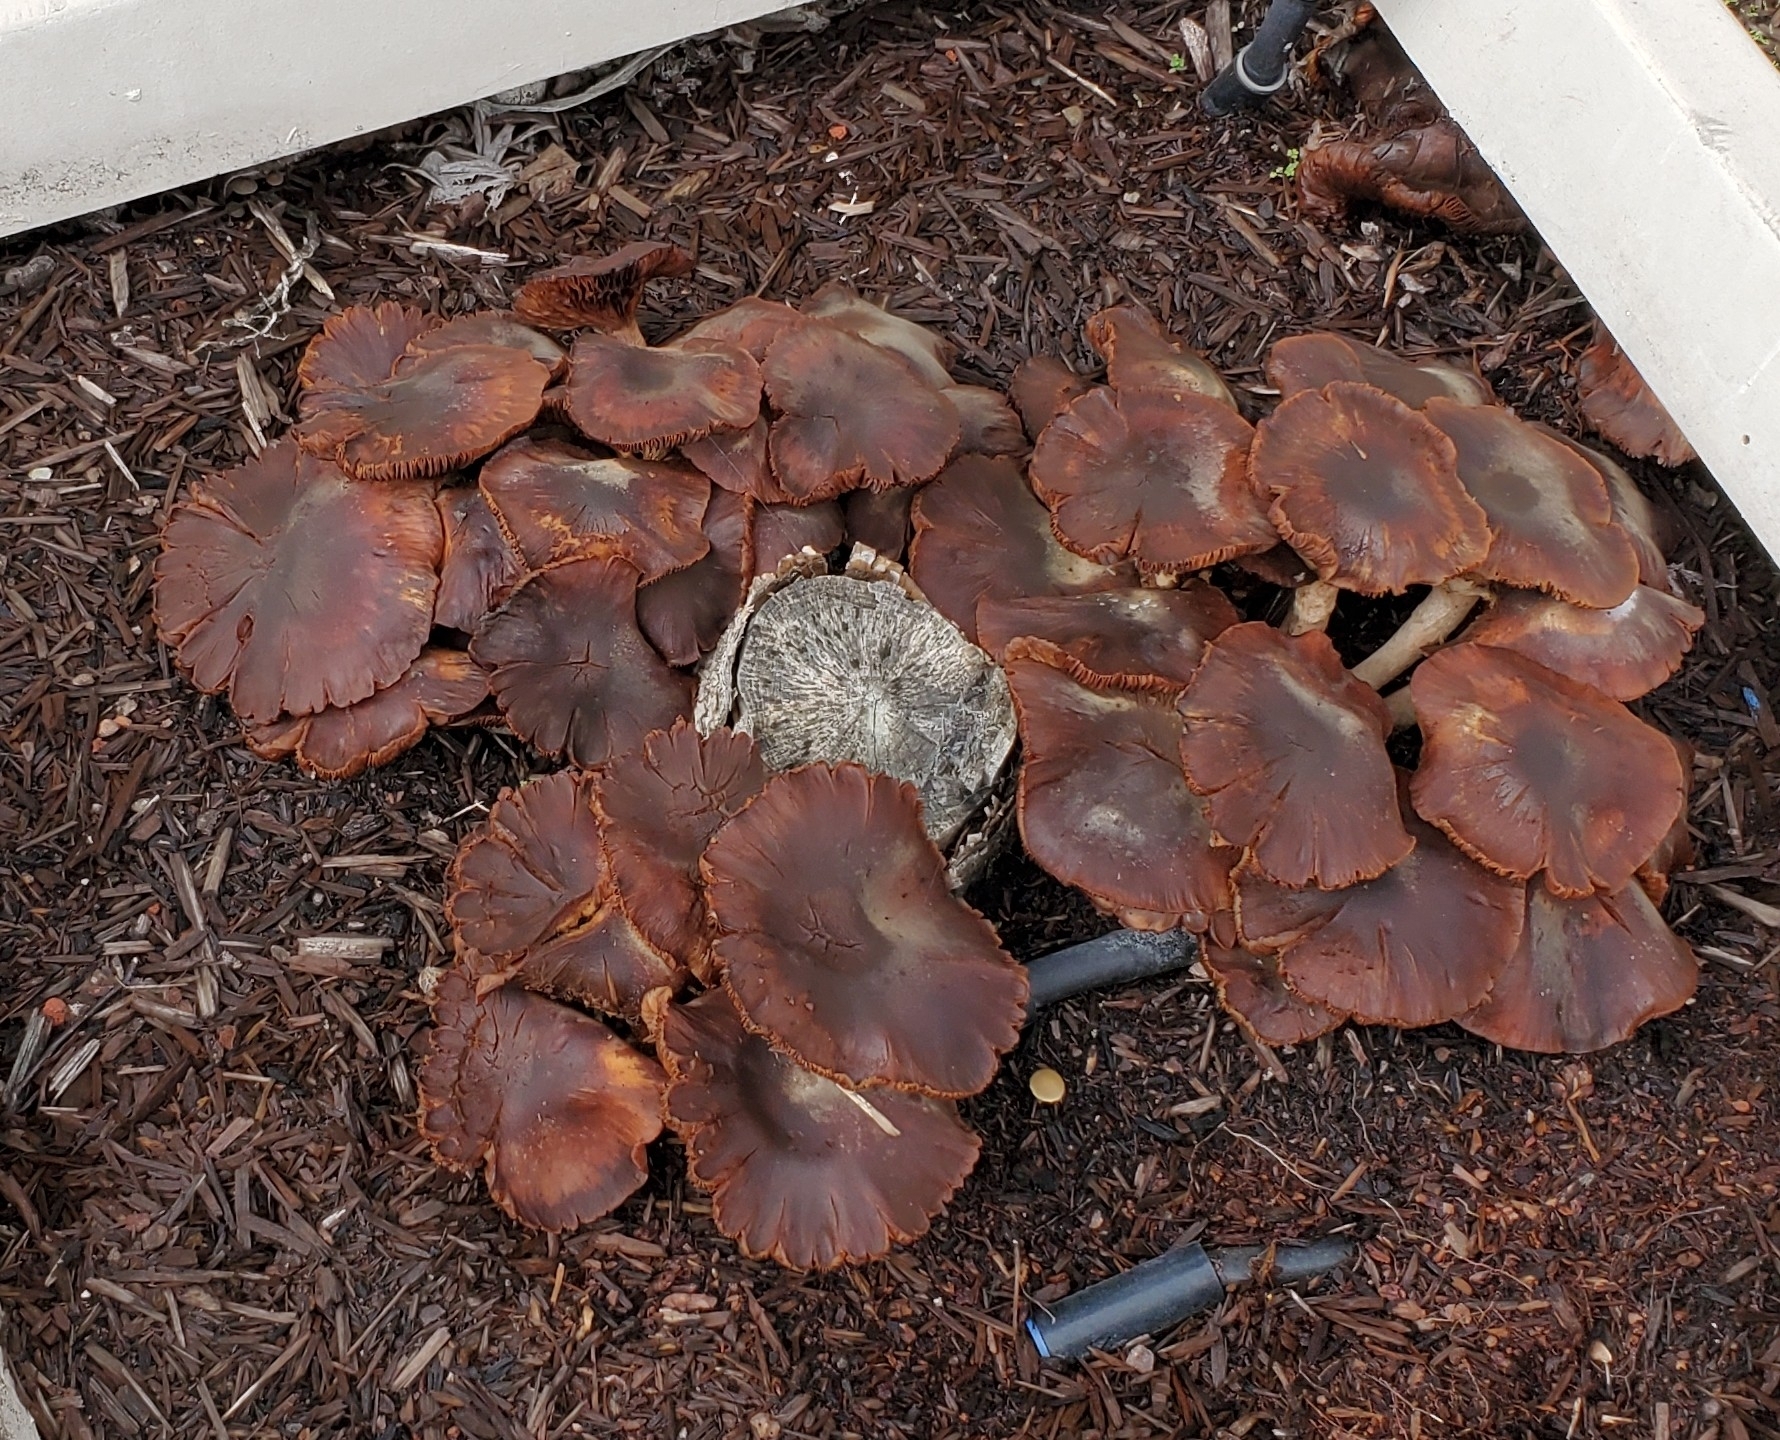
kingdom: Fungi
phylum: Basidiomycota
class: Agaricomycetes
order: Agaricales
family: Physalacriaceae
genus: Armillaria
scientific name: Armillaria mellea
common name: Honey fungus
